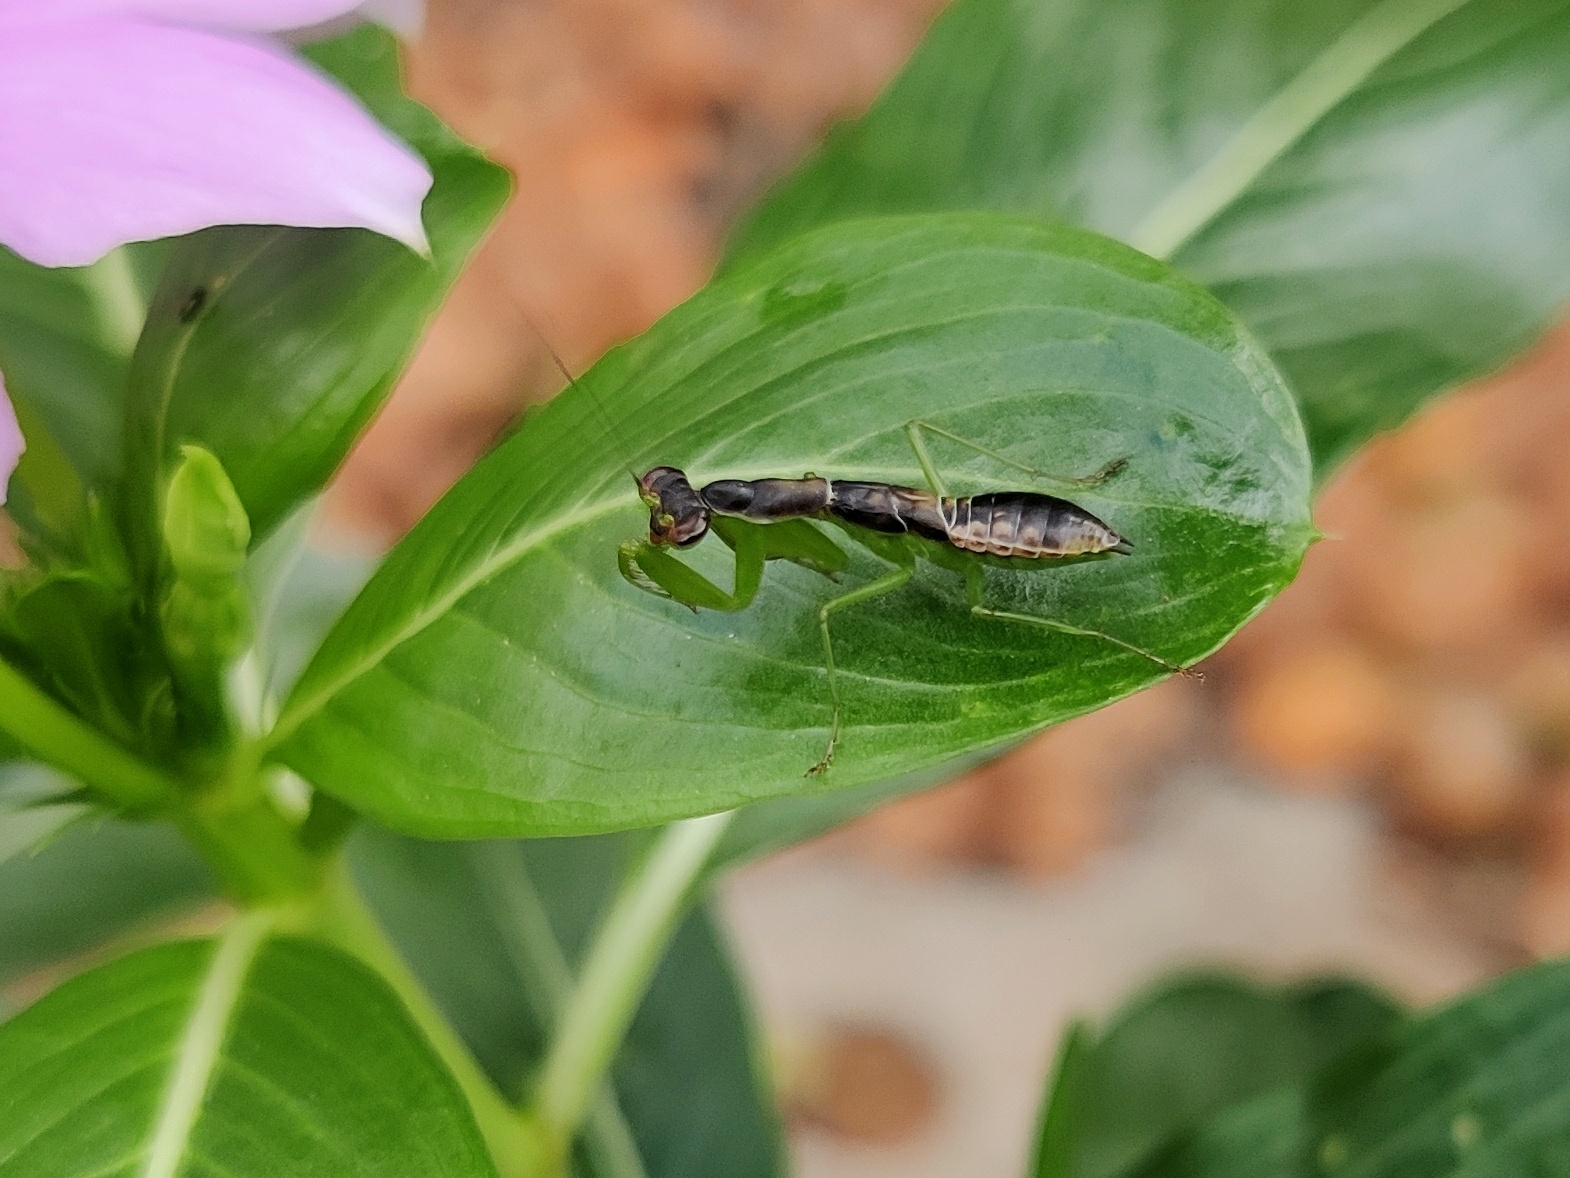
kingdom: Animalia
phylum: Arthropoda
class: Insecta
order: Mantodea
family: Hymenopodidae
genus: Odontomantis
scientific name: Odontomantis planiceps
